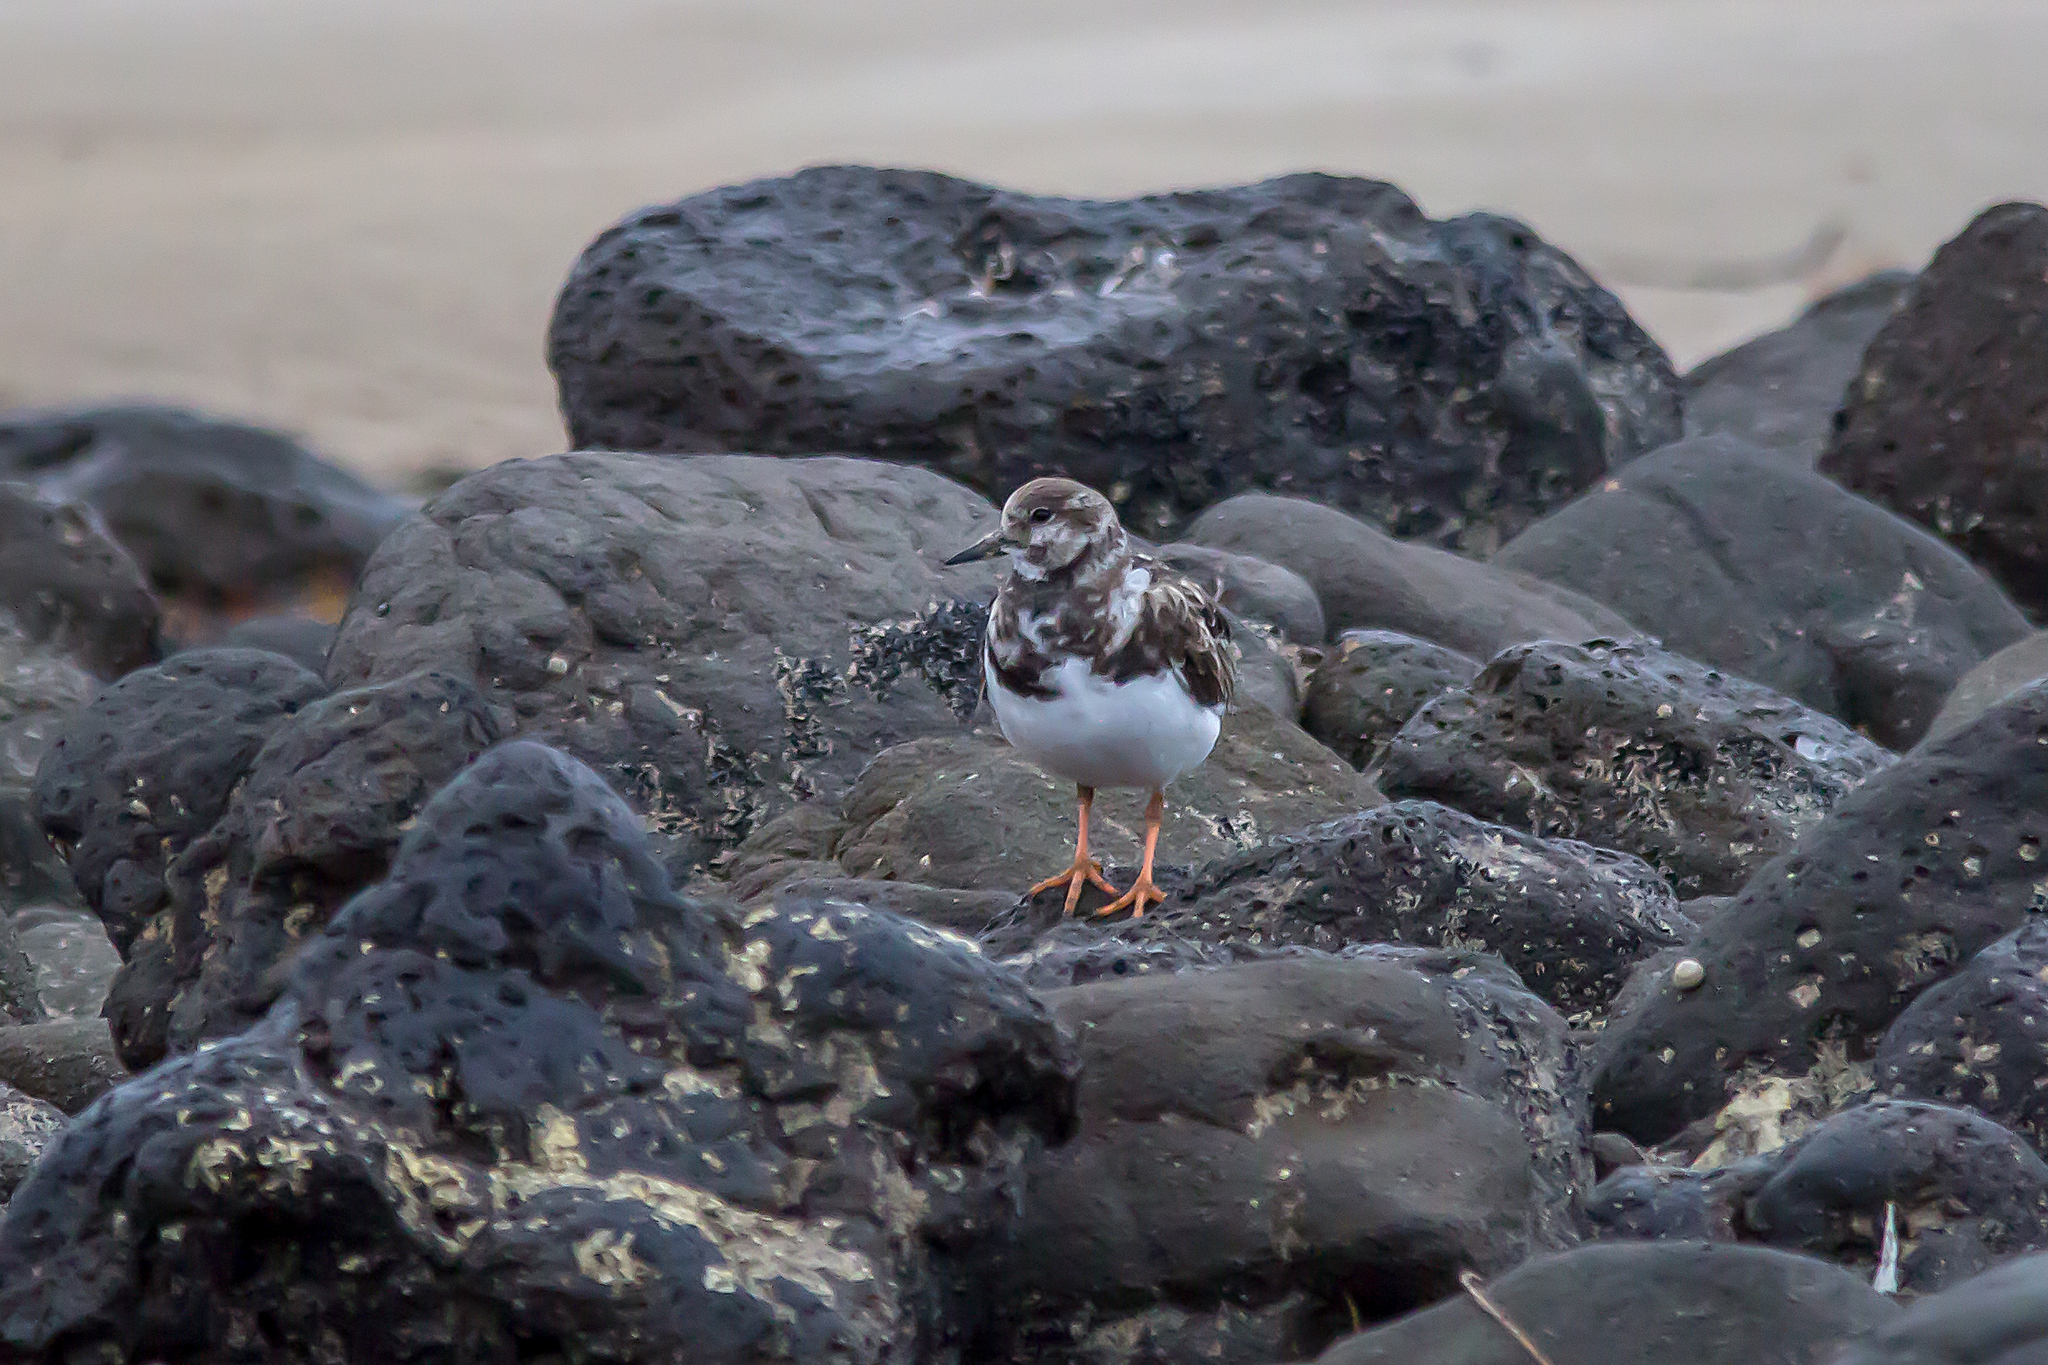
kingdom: Animalia
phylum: Chordata
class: Aves
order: Charadriiformes
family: Scolopacidae
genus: Arenaria
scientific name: Arenaria interpres
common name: Ruddy turnstone
